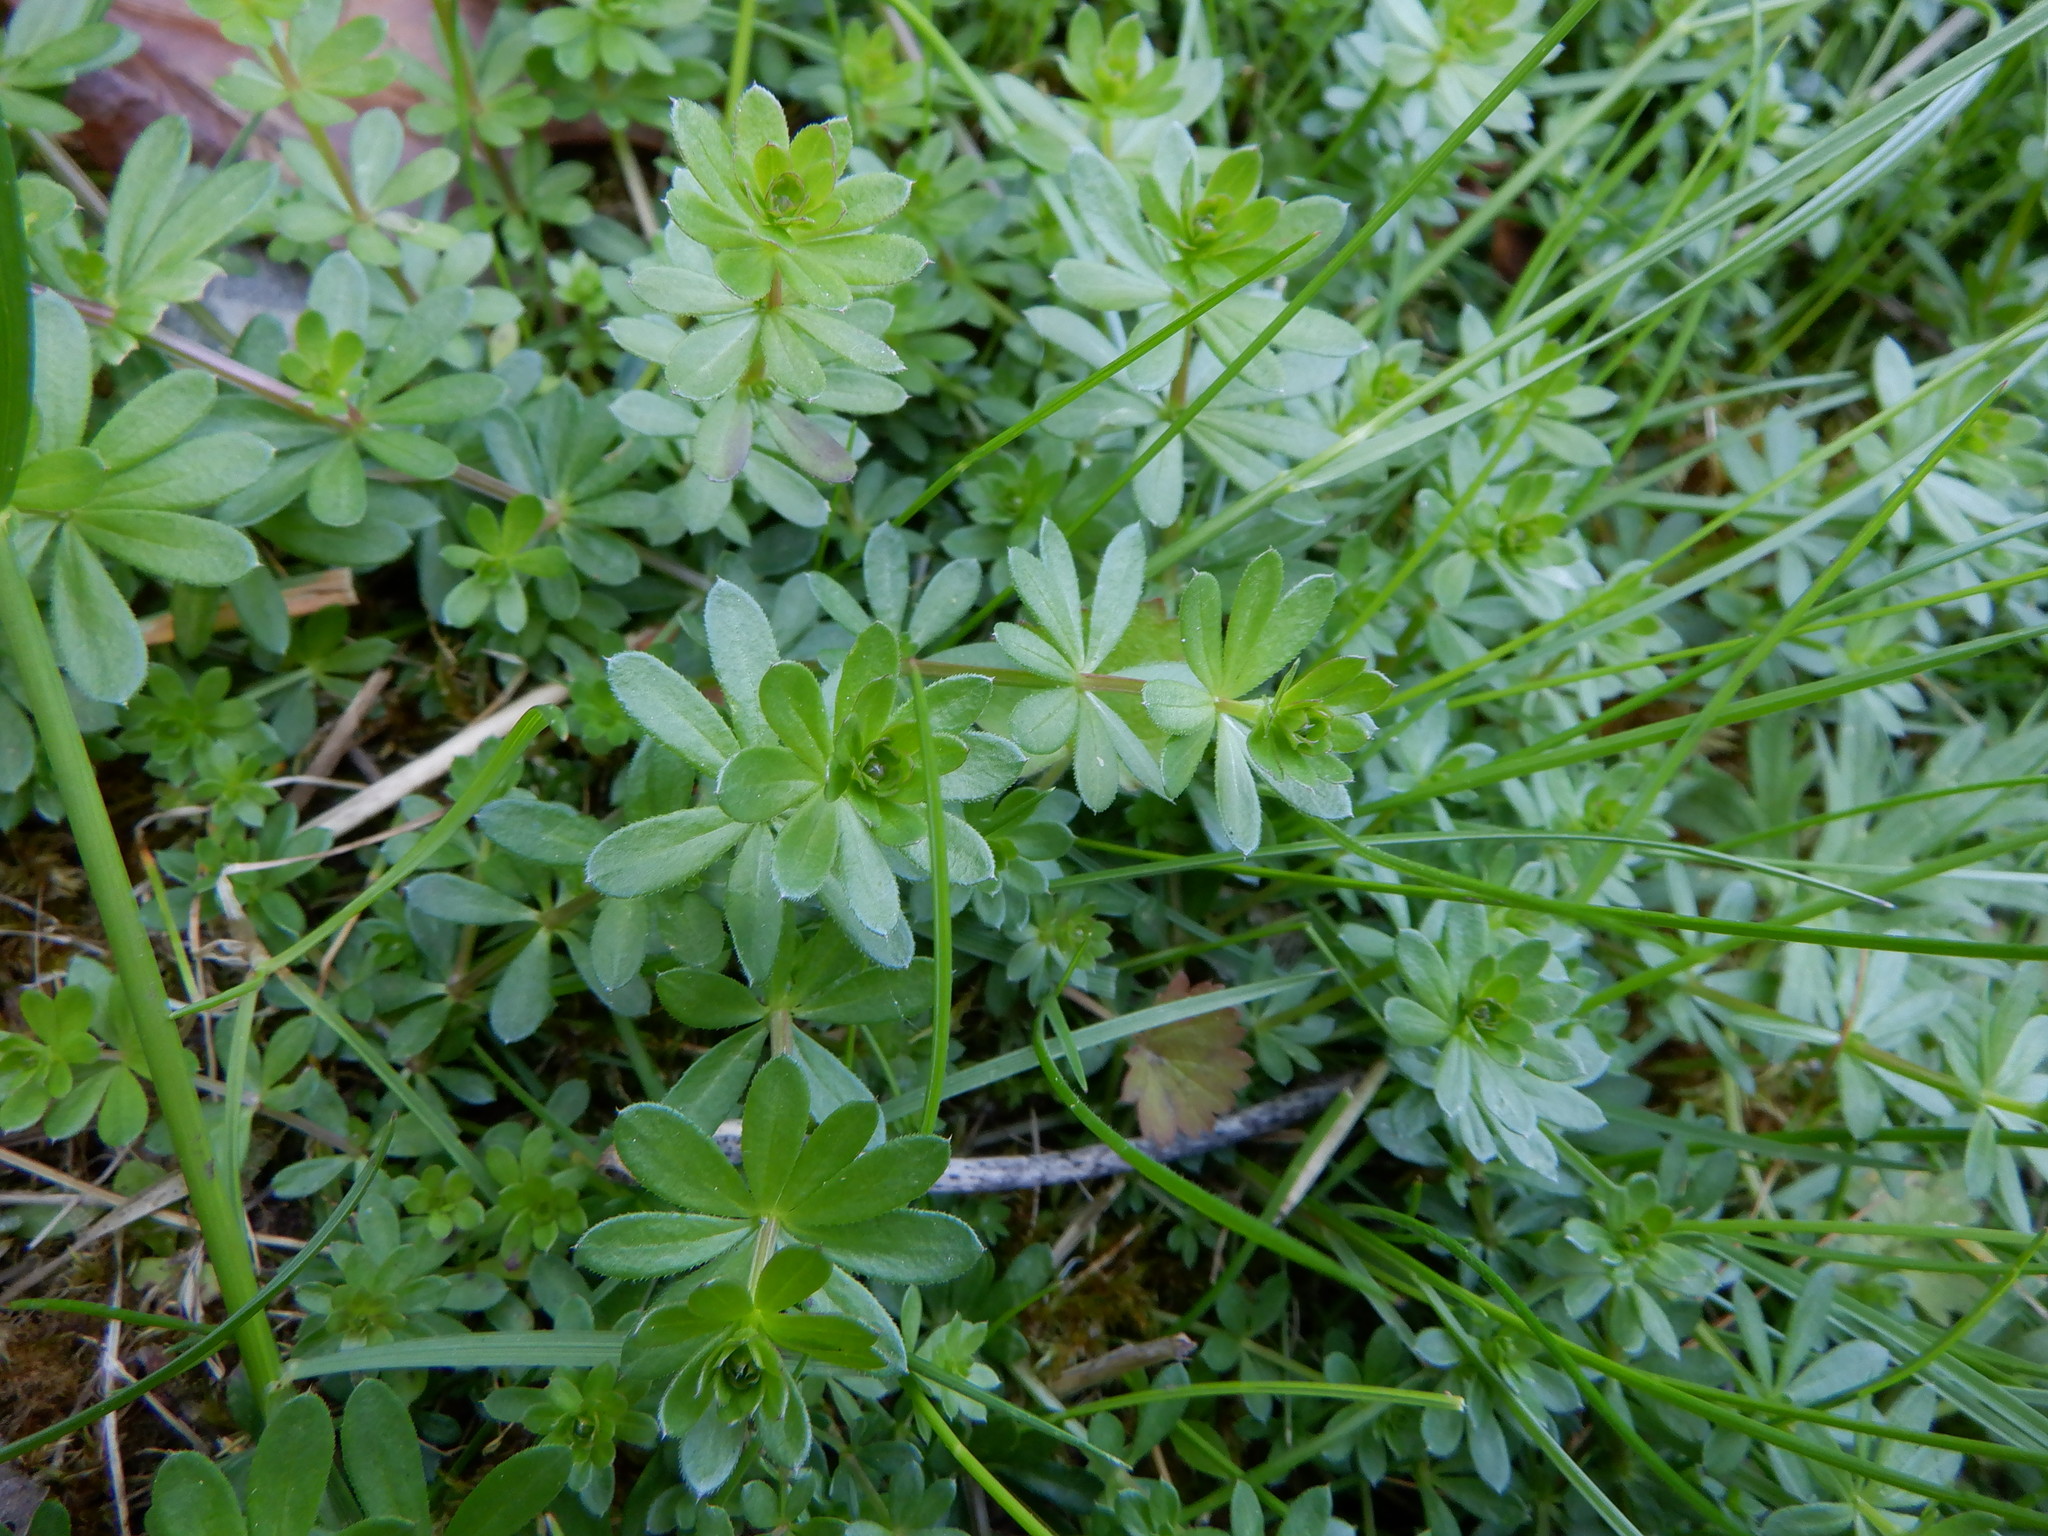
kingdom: Plantae
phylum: Tracheophyta
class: Magnoliopsida
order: Gentianales
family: Rubiaceae
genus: Galium
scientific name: Galium mollugo
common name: Hedge bedstraw
